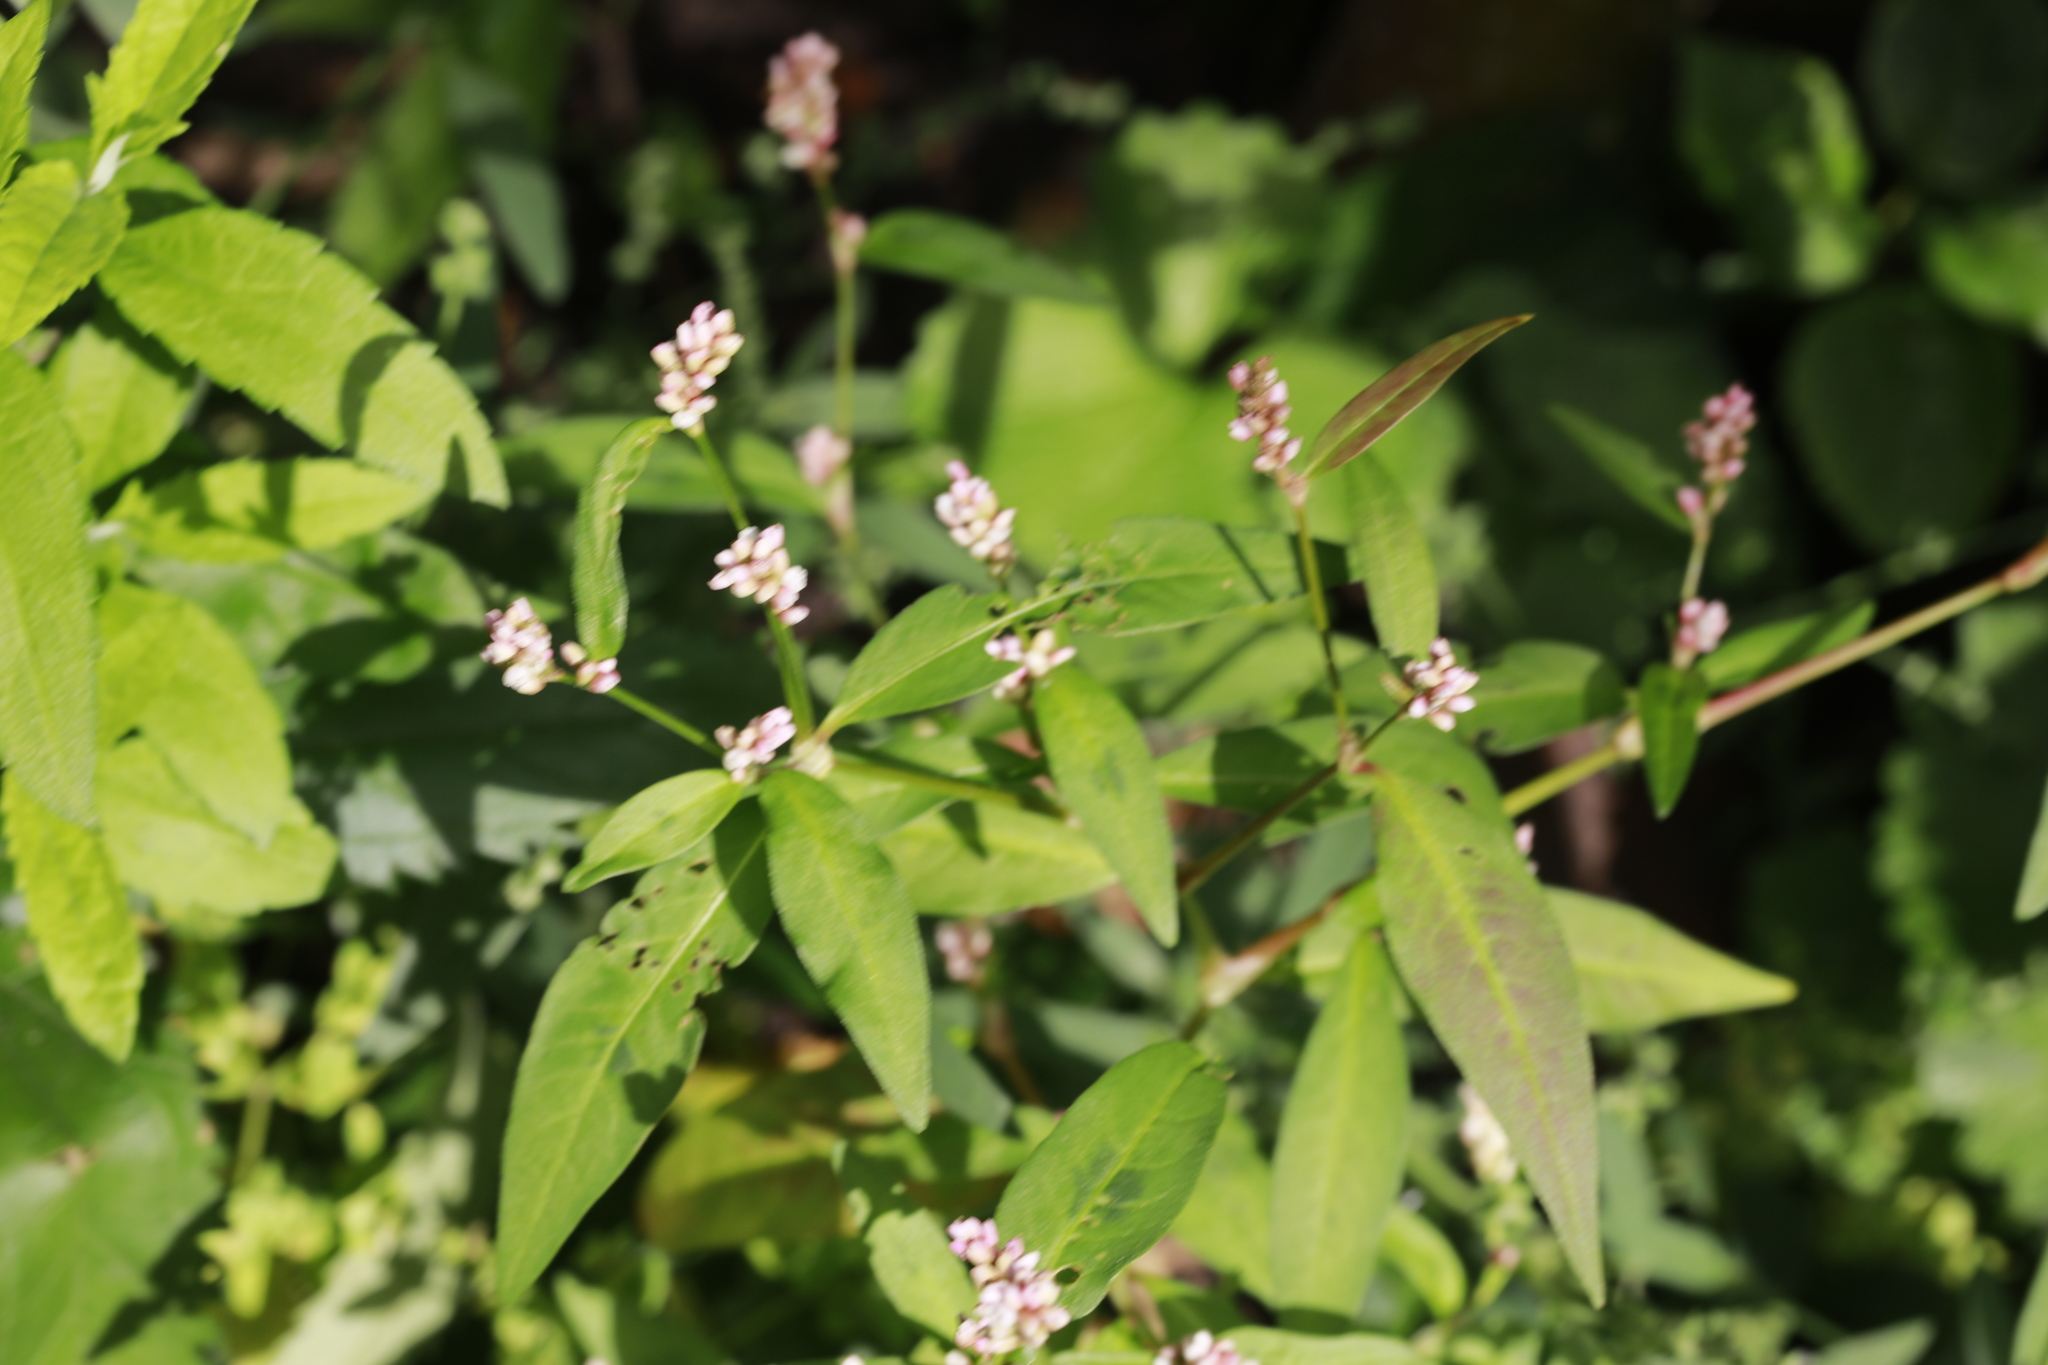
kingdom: Plantae
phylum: Tracheophyta
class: Magnoliopsida
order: Caryophyllales
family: Polygonaceae
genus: Persicaria
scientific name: Persicaria maculosa
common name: Redshank
